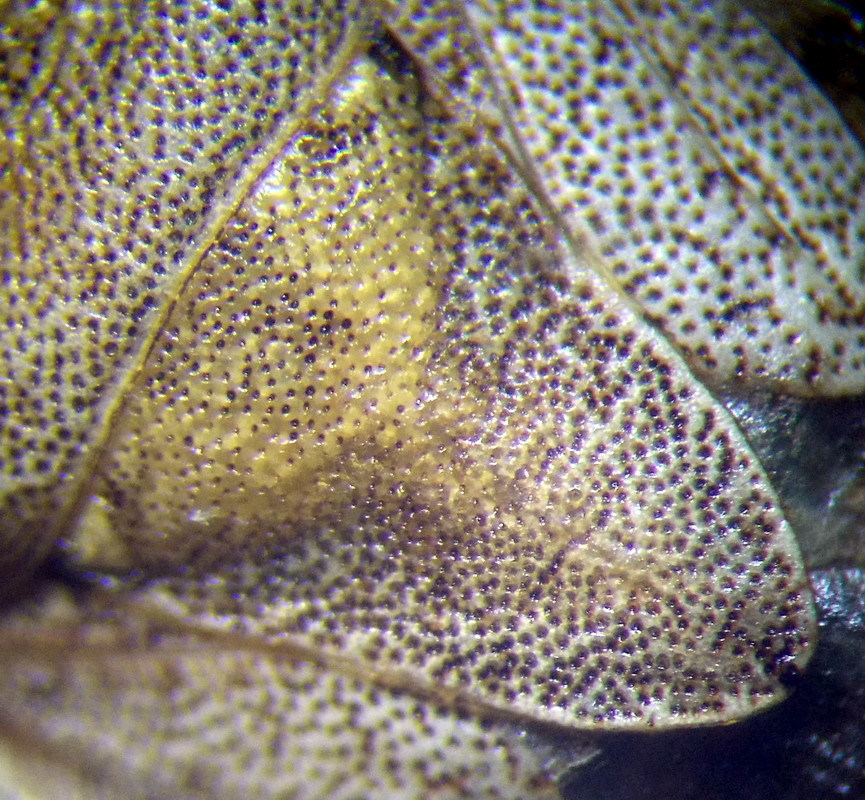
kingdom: Animalia
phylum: Arthropoda
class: Insecta
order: Hemiptera
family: Pentatomidae
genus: Sciocoris
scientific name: Sciocoris macrocephalus
